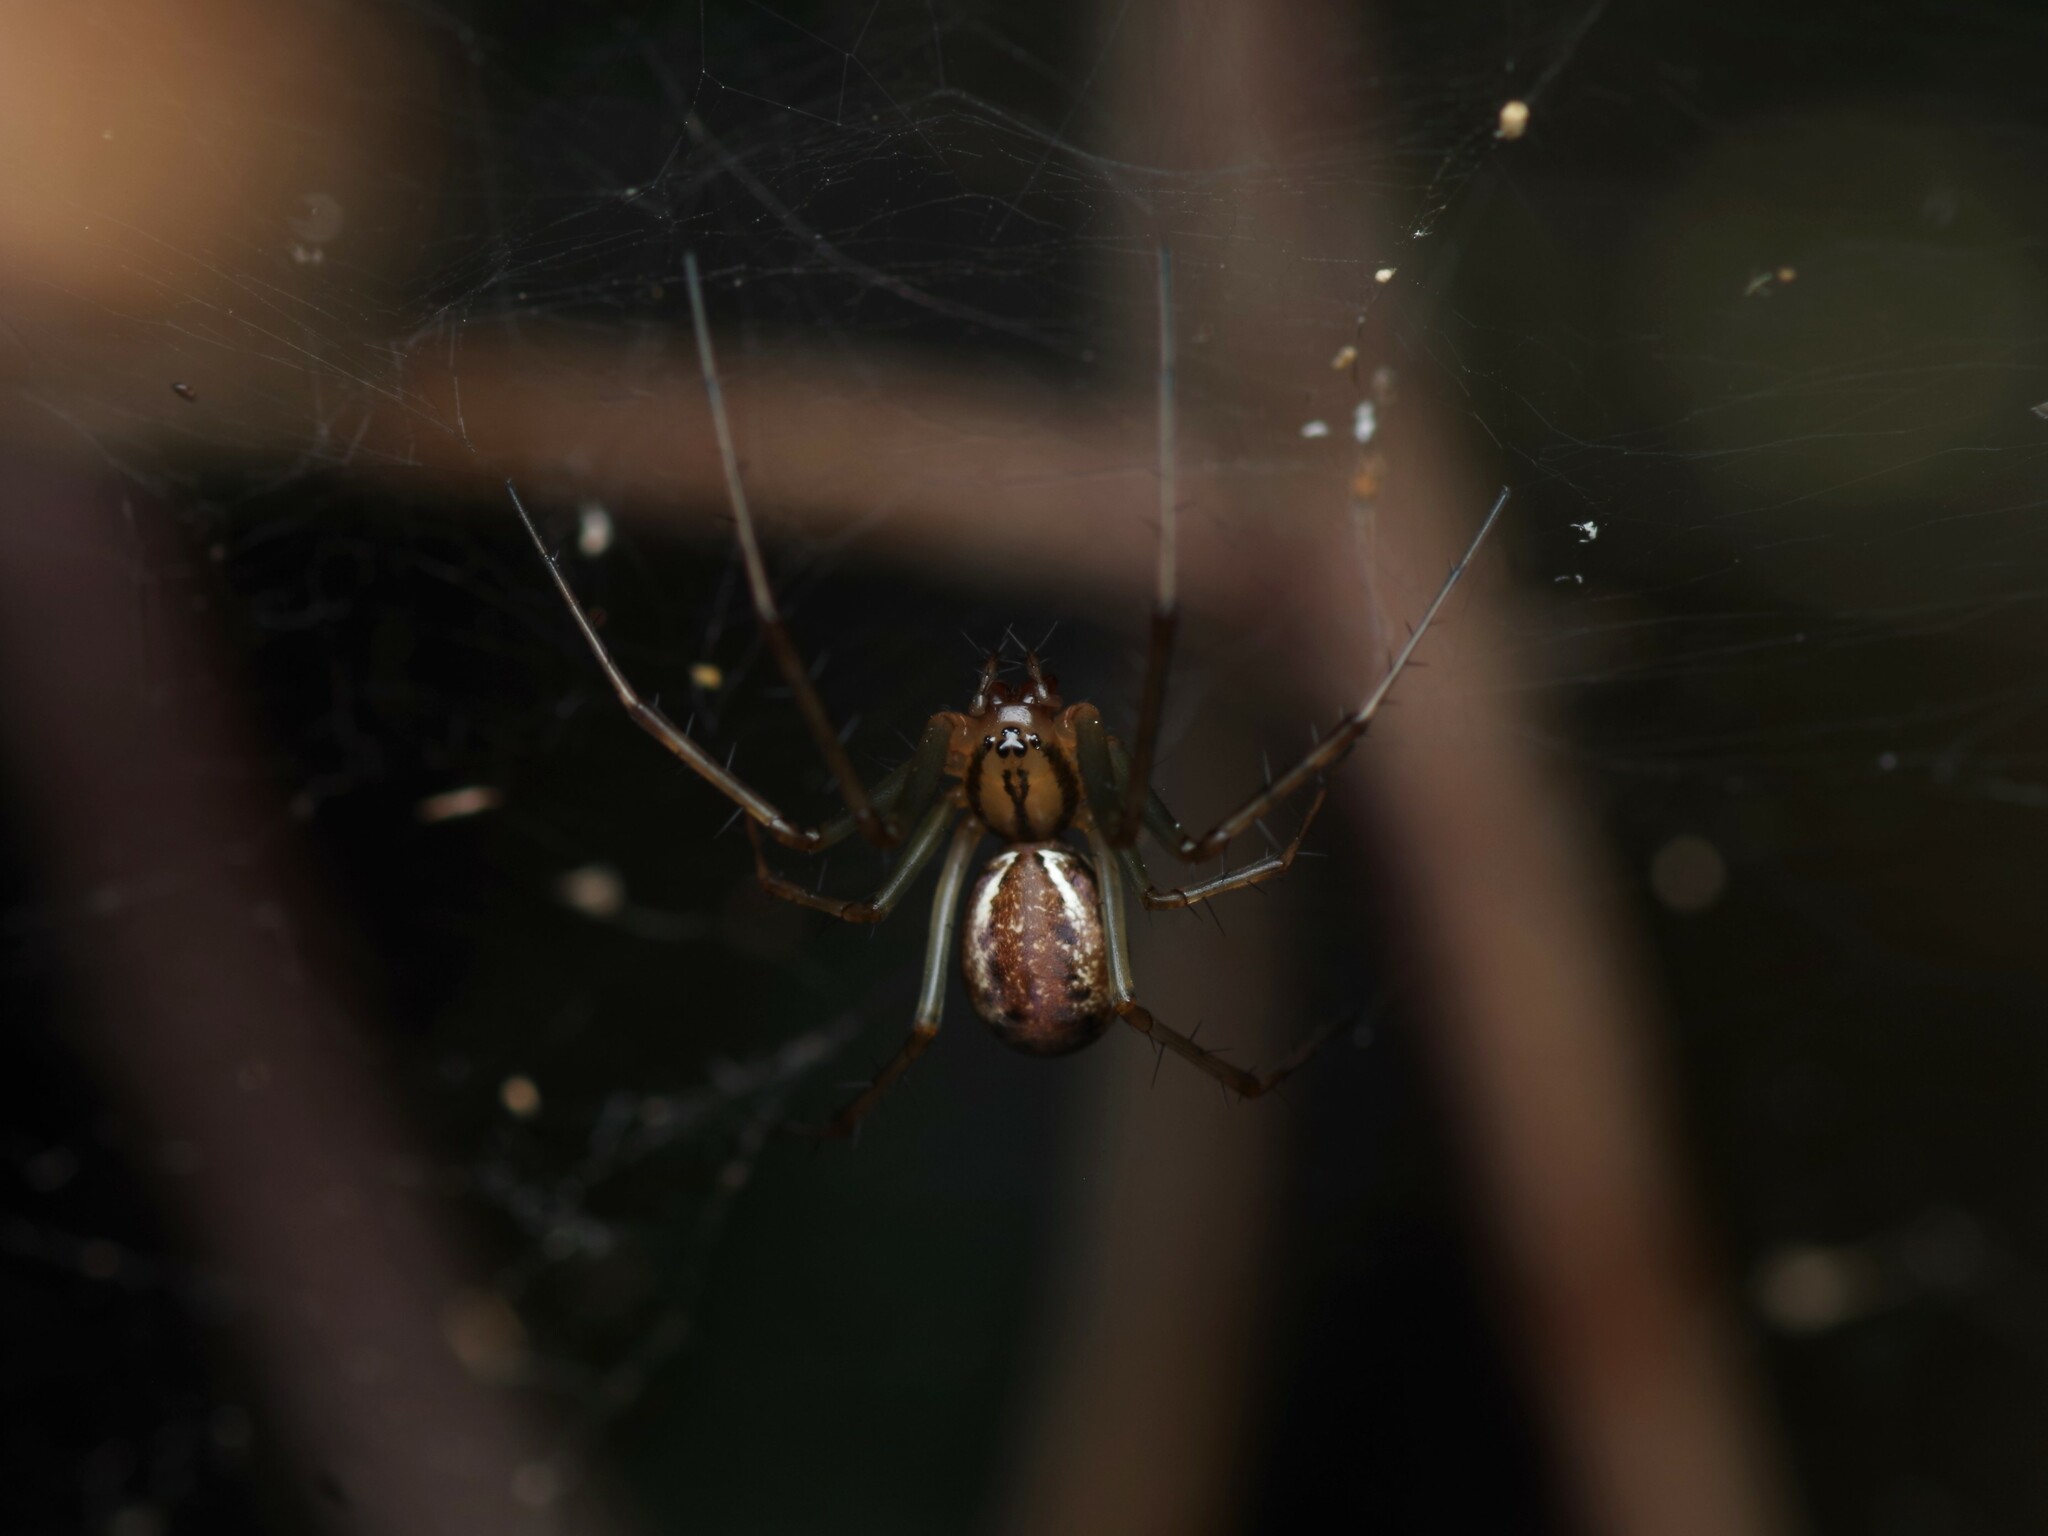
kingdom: Animalia
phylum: Arthropoda
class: Arachnida
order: Araneae
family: Linyphiidae
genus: Linyphia
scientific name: Linyphia triangularis
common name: Money spider
